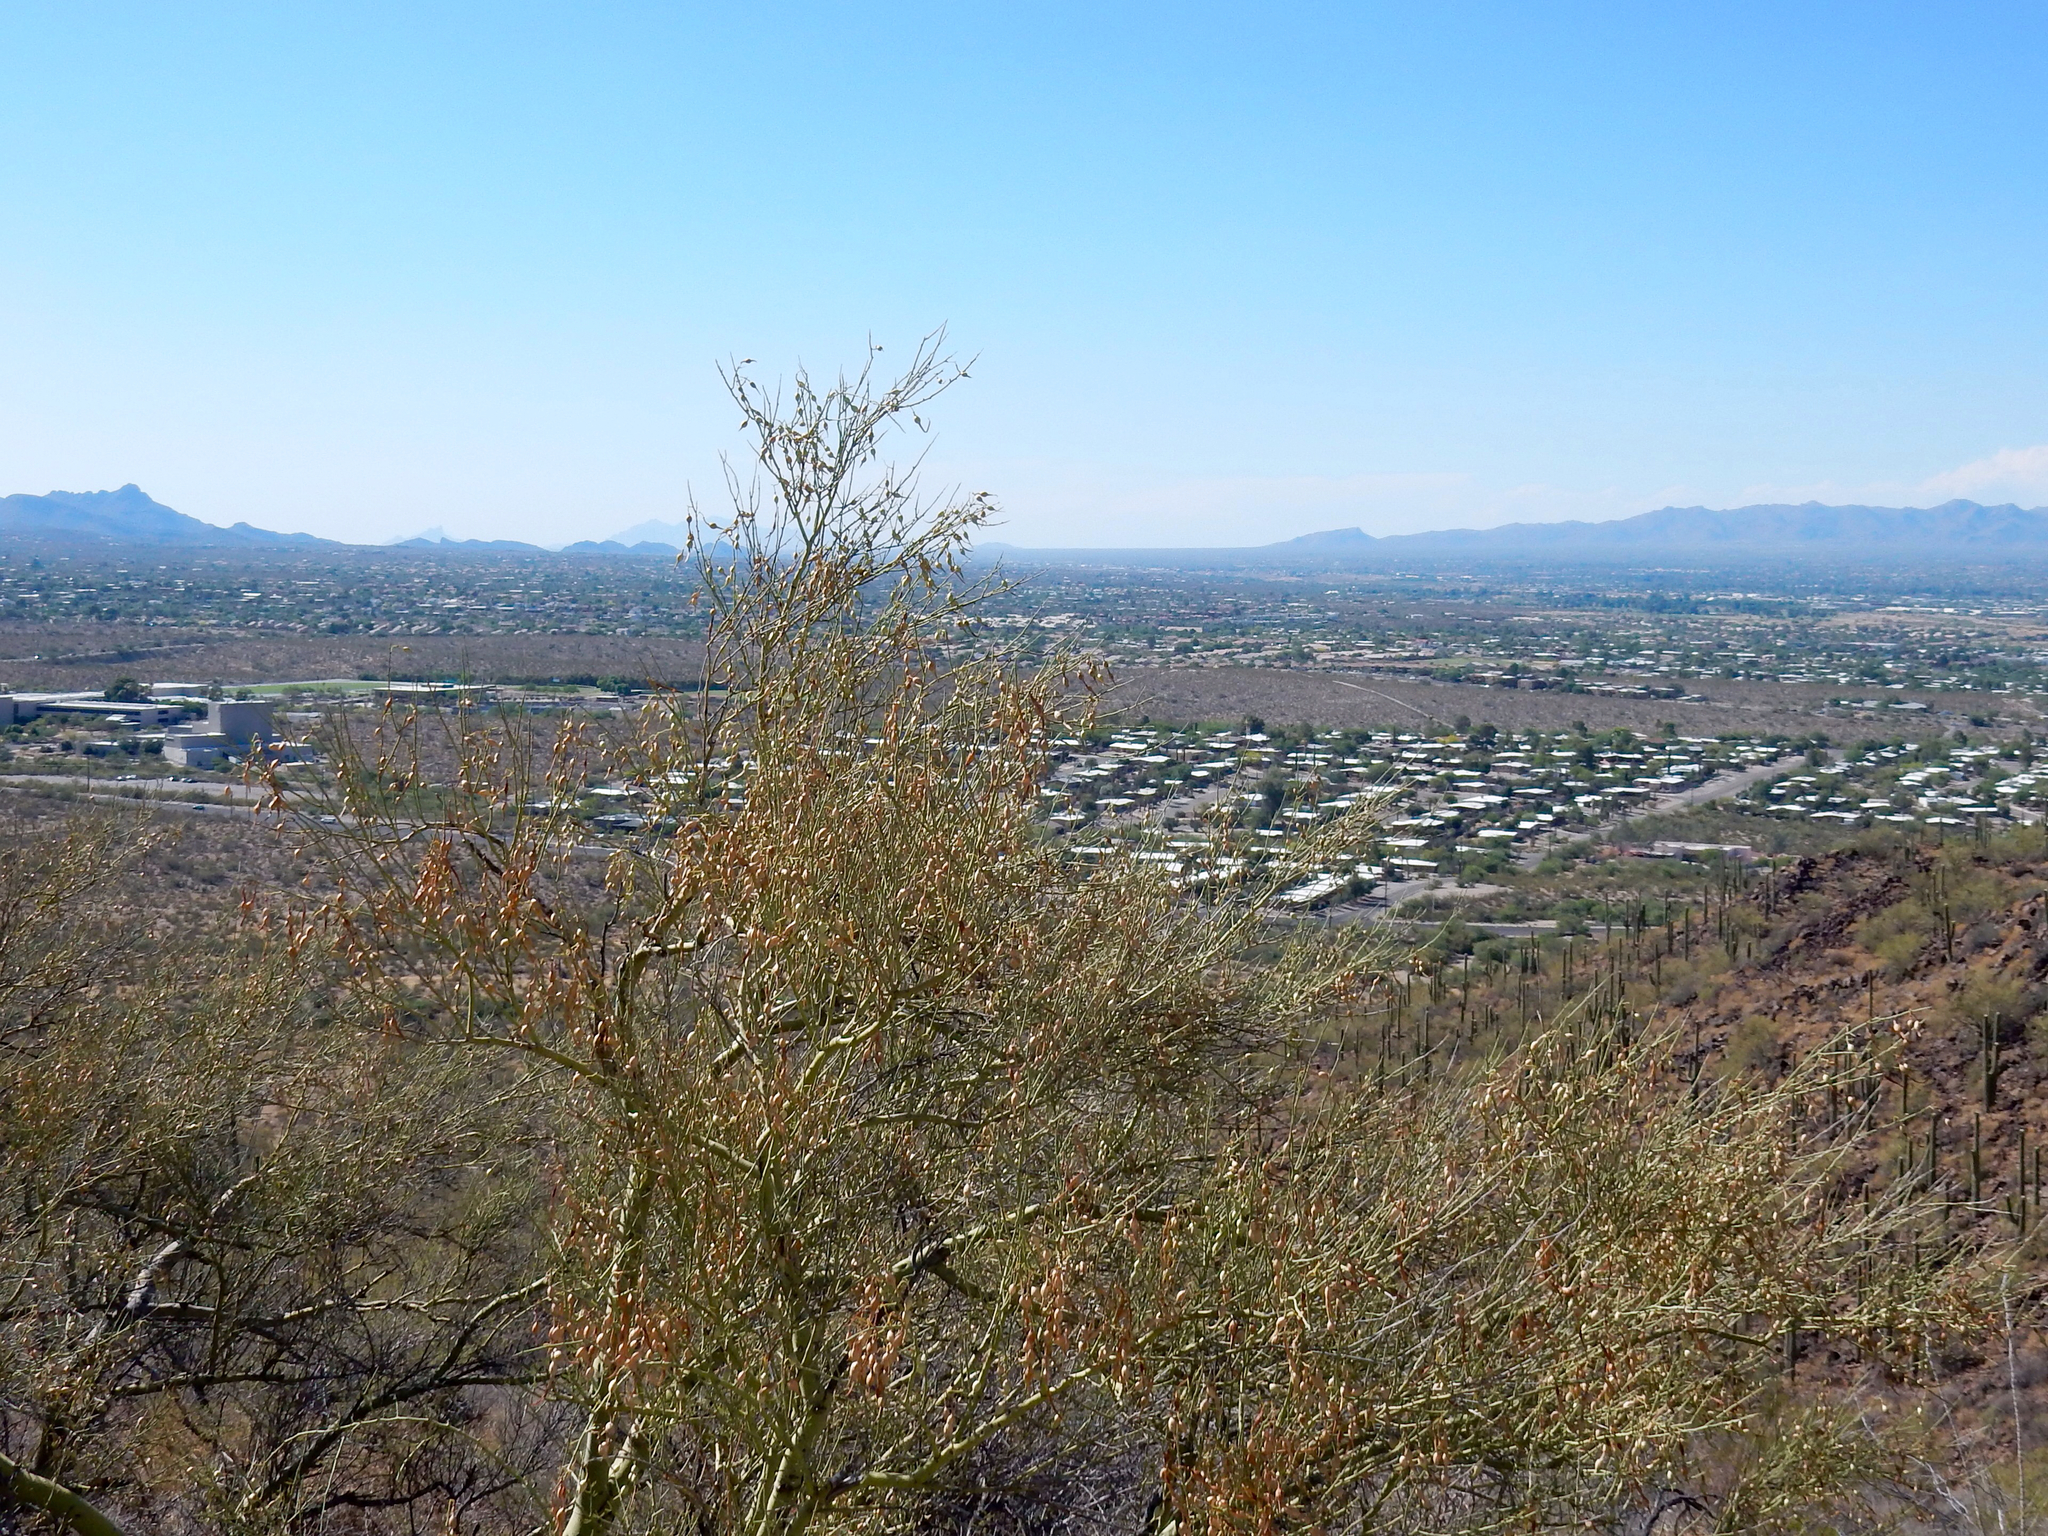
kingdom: Plantae
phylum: Tracheophyta
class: Magnoliopsida
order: Fabales
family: Fabaceae
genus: Parkinsonia
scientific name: Parkinsonia microphylla
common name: Yellow paloverde
